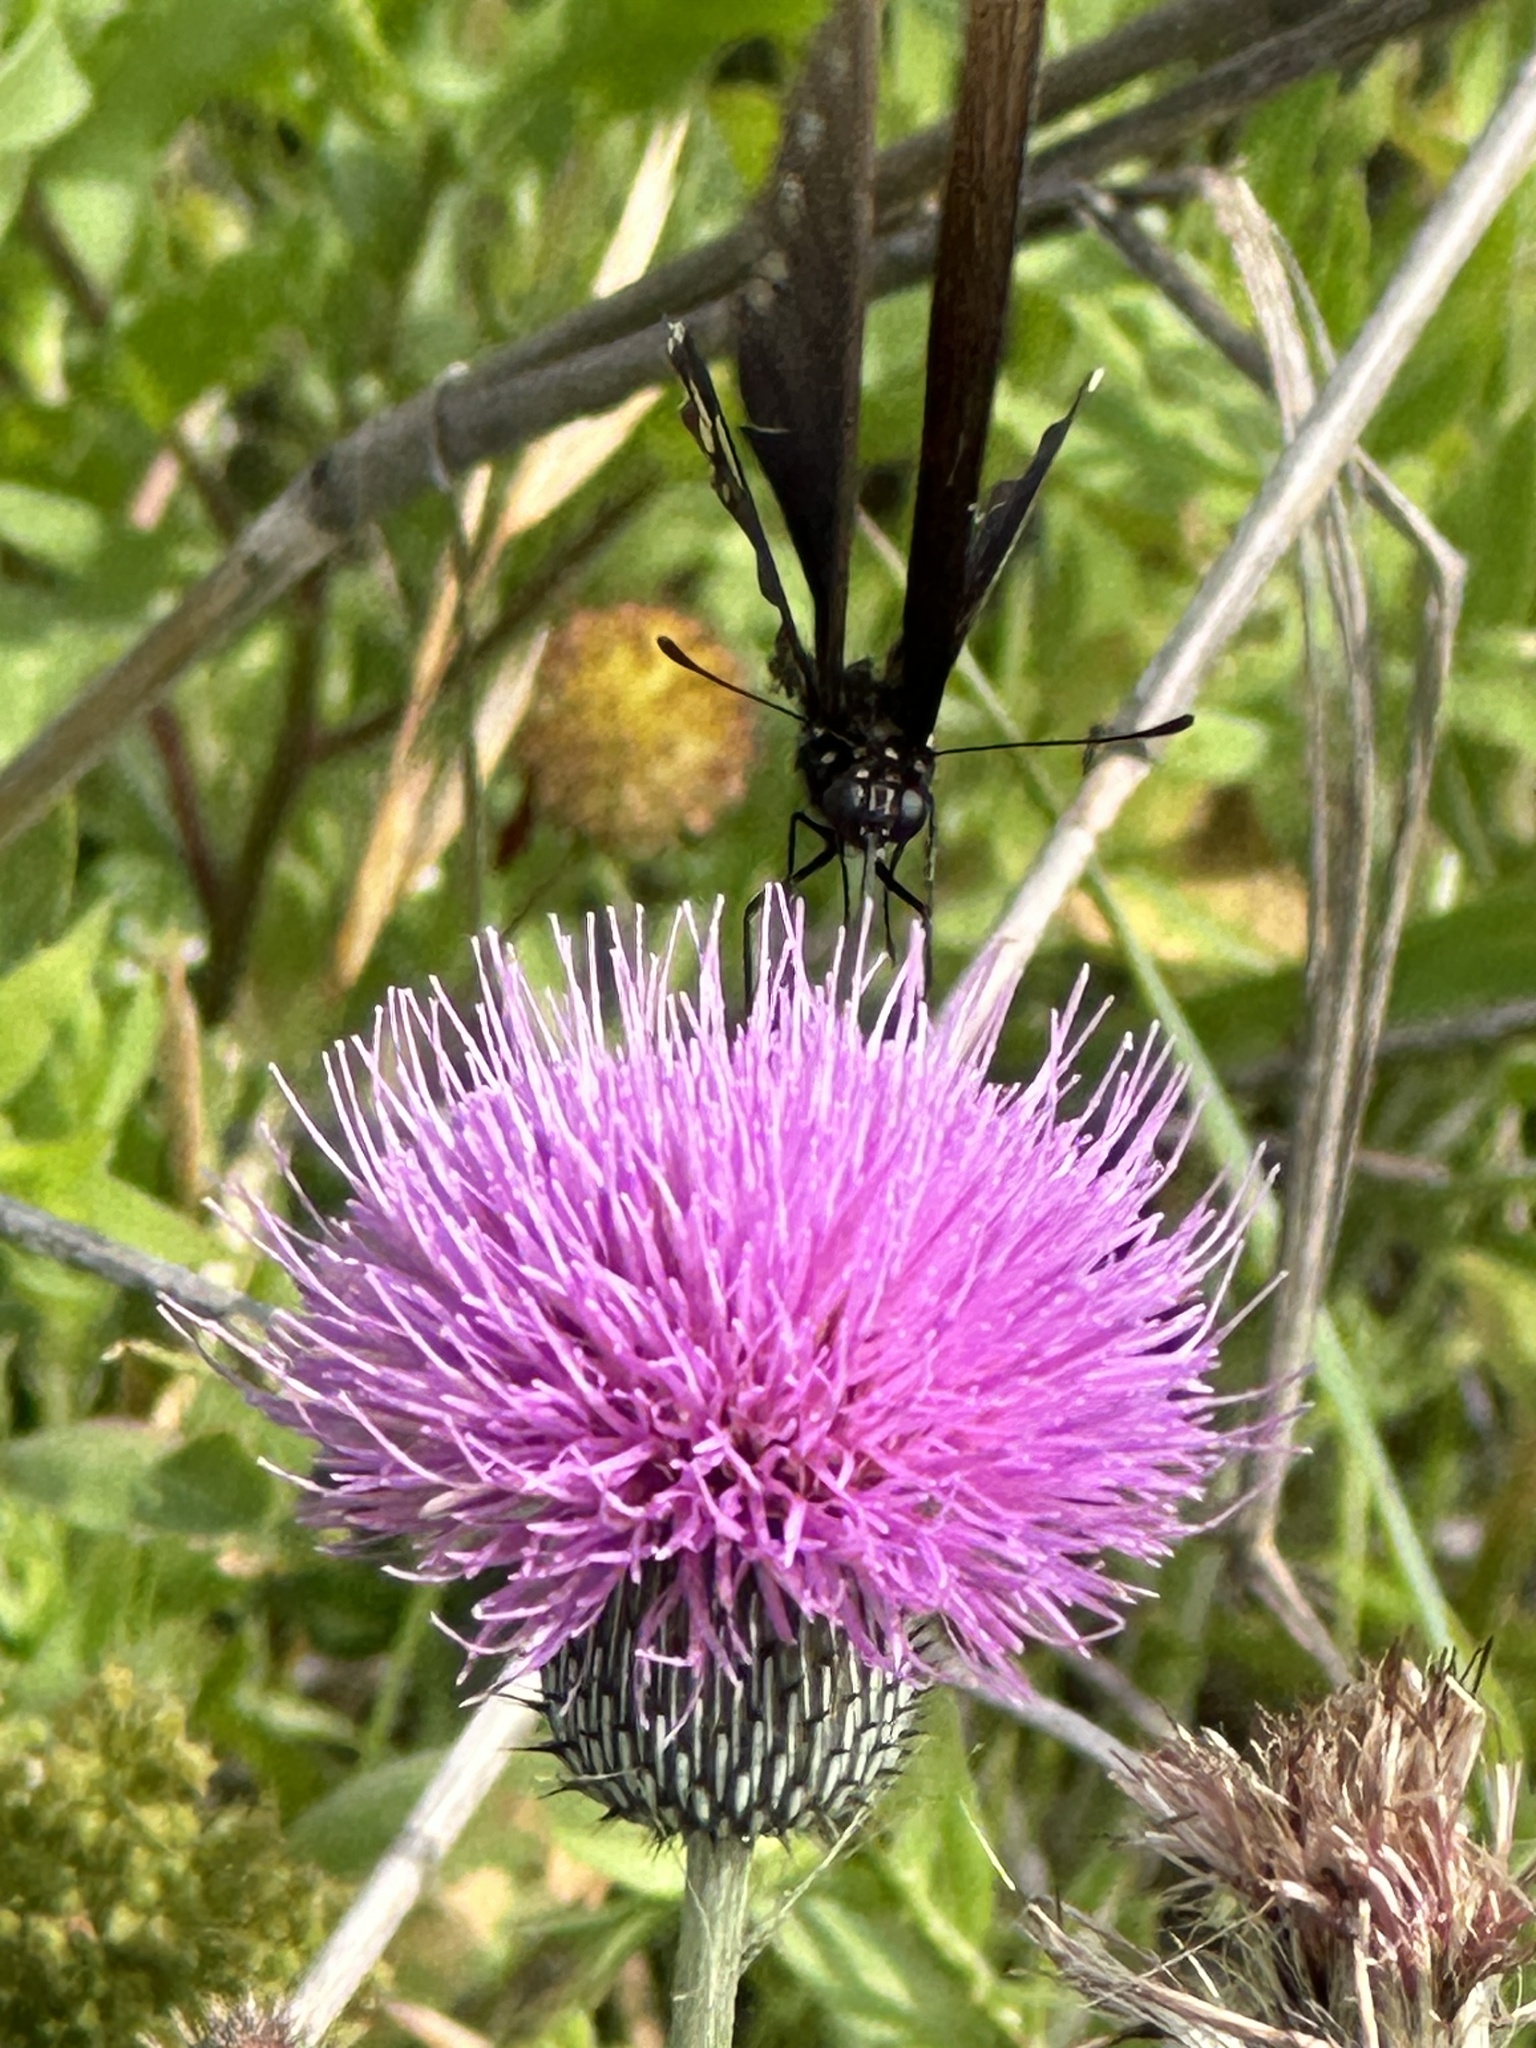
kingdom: Plantae
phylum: Tracheophyta
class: Magnoliopsida
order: Asterales
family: Asteraceae
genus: Cirsium
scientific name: Cirsium texanum
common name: Texas purple thistle
